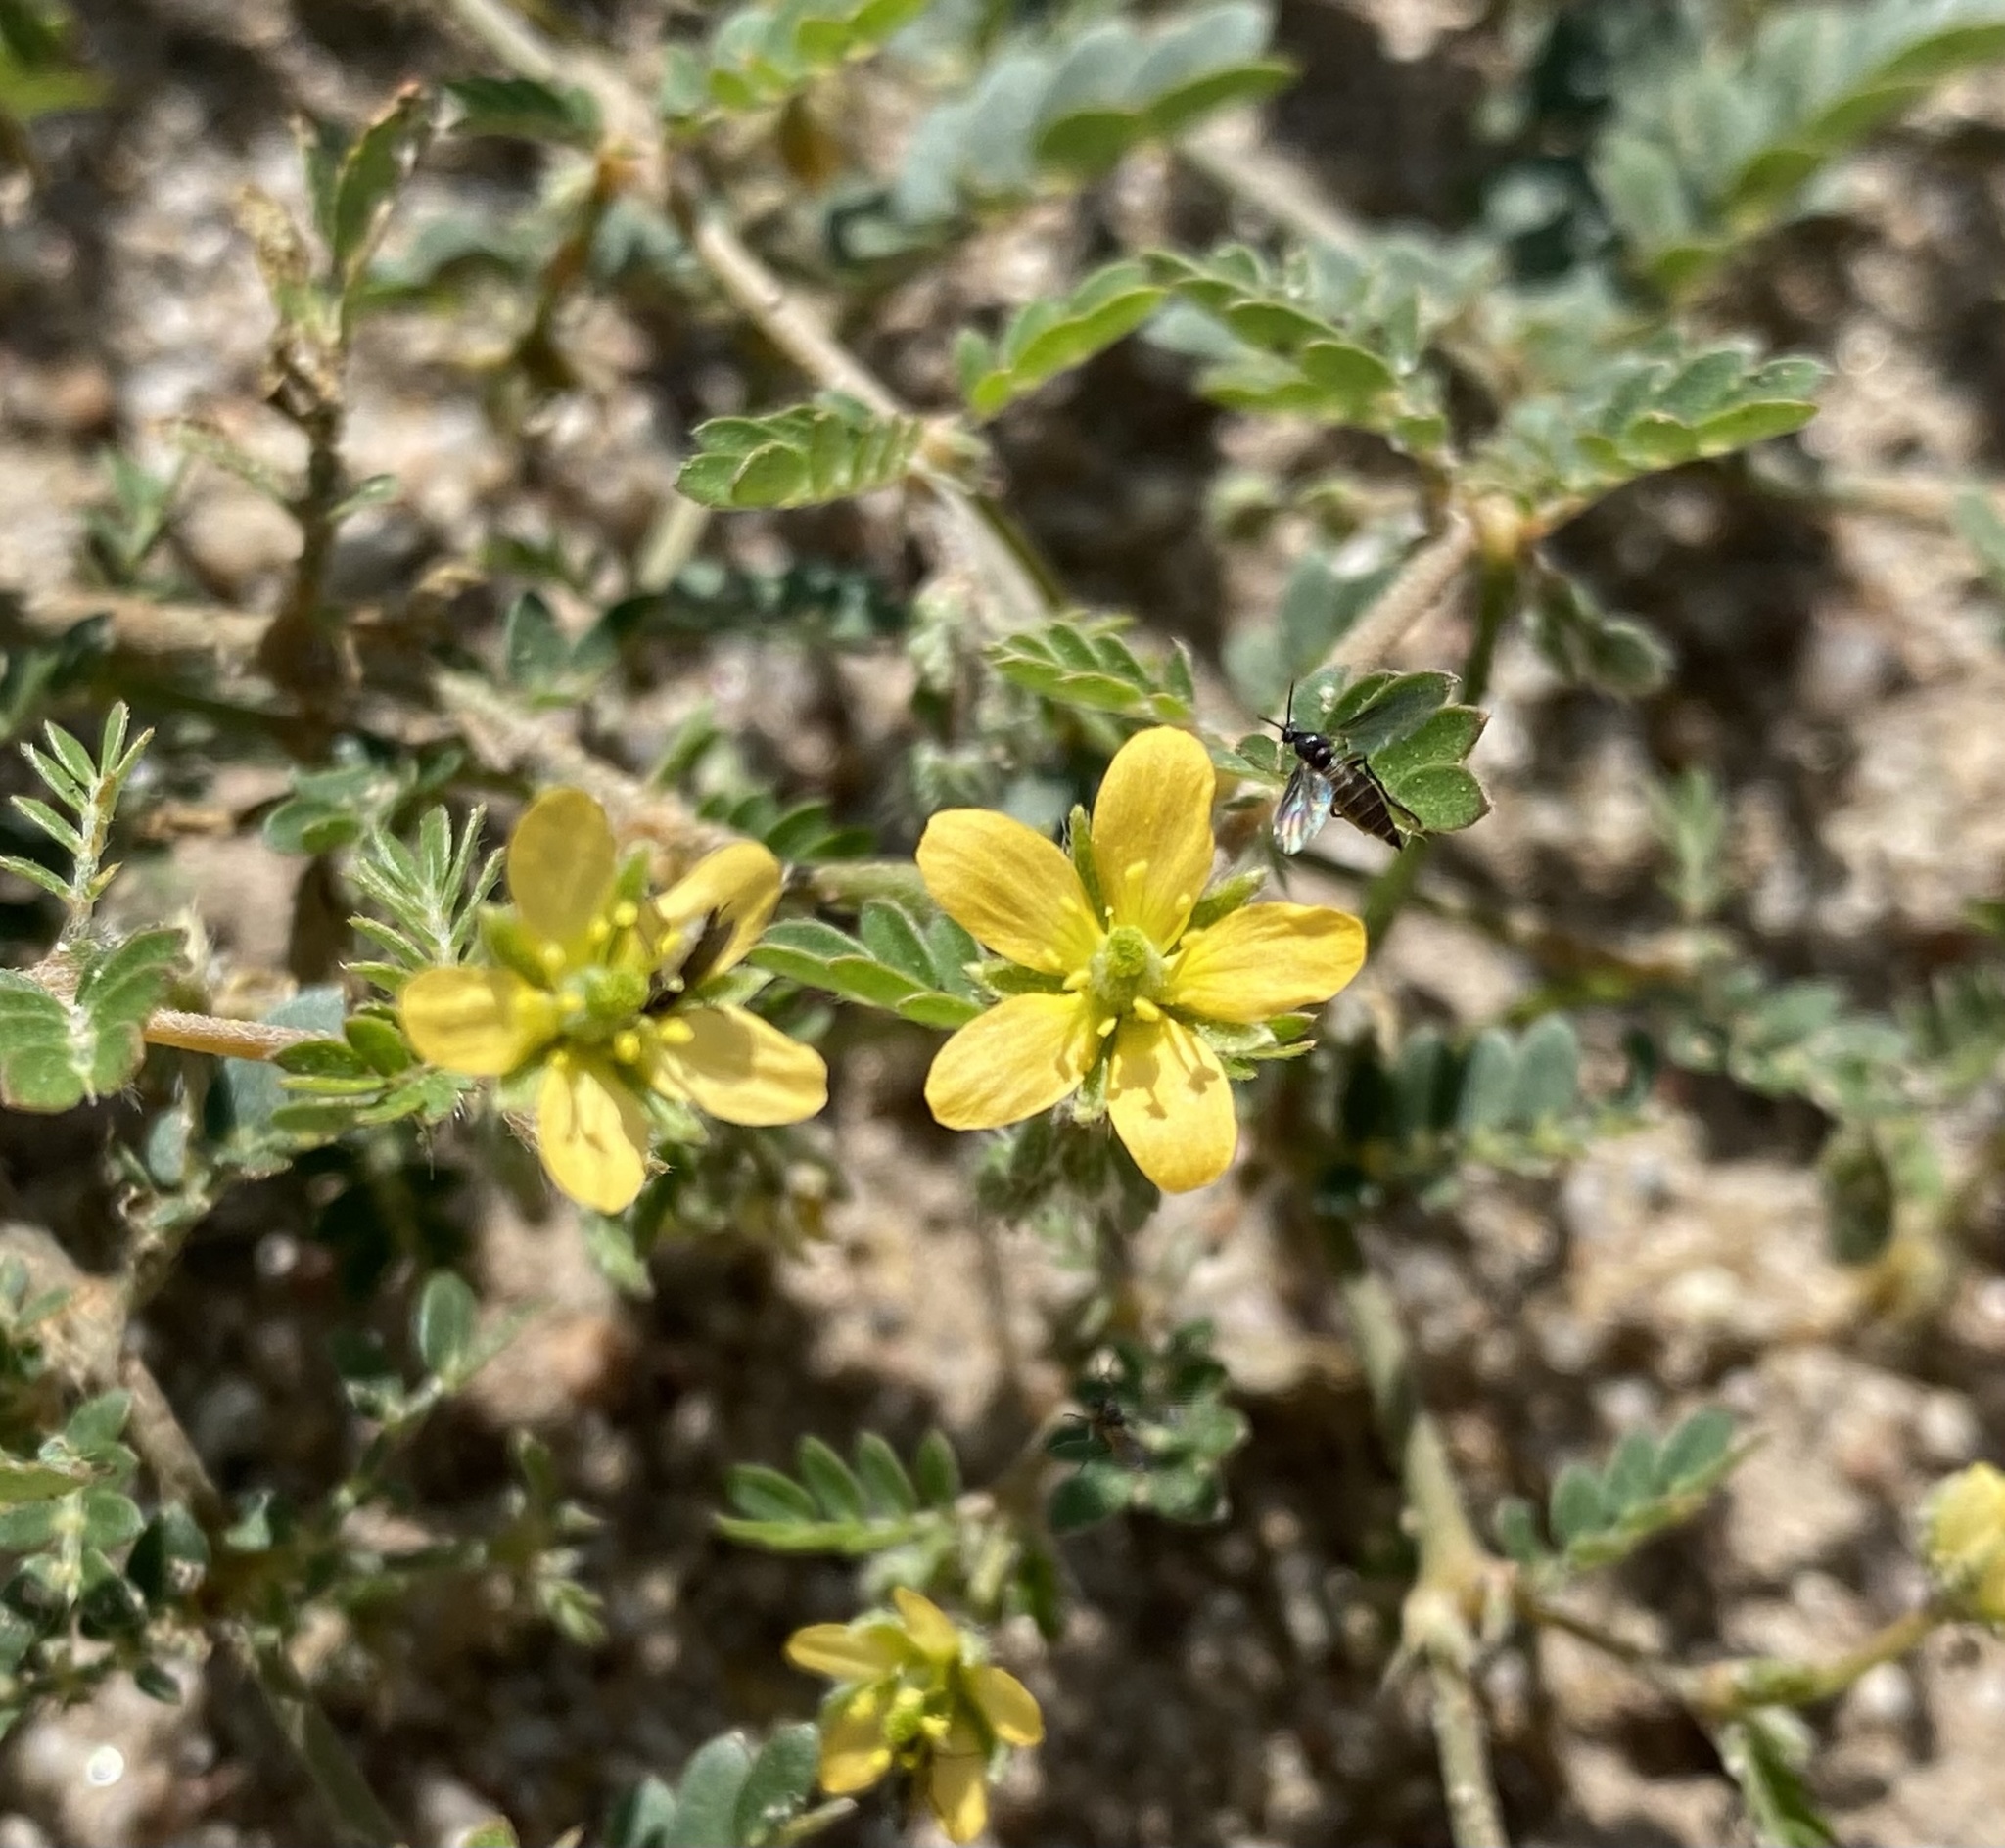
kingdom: Plantae
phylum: Tracheophyta
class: Magnoliopsida
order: Zygophyllales
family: Zygophyllaceae
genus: Tribulus
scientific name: Tribulus terrestris
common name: Puncturevine
